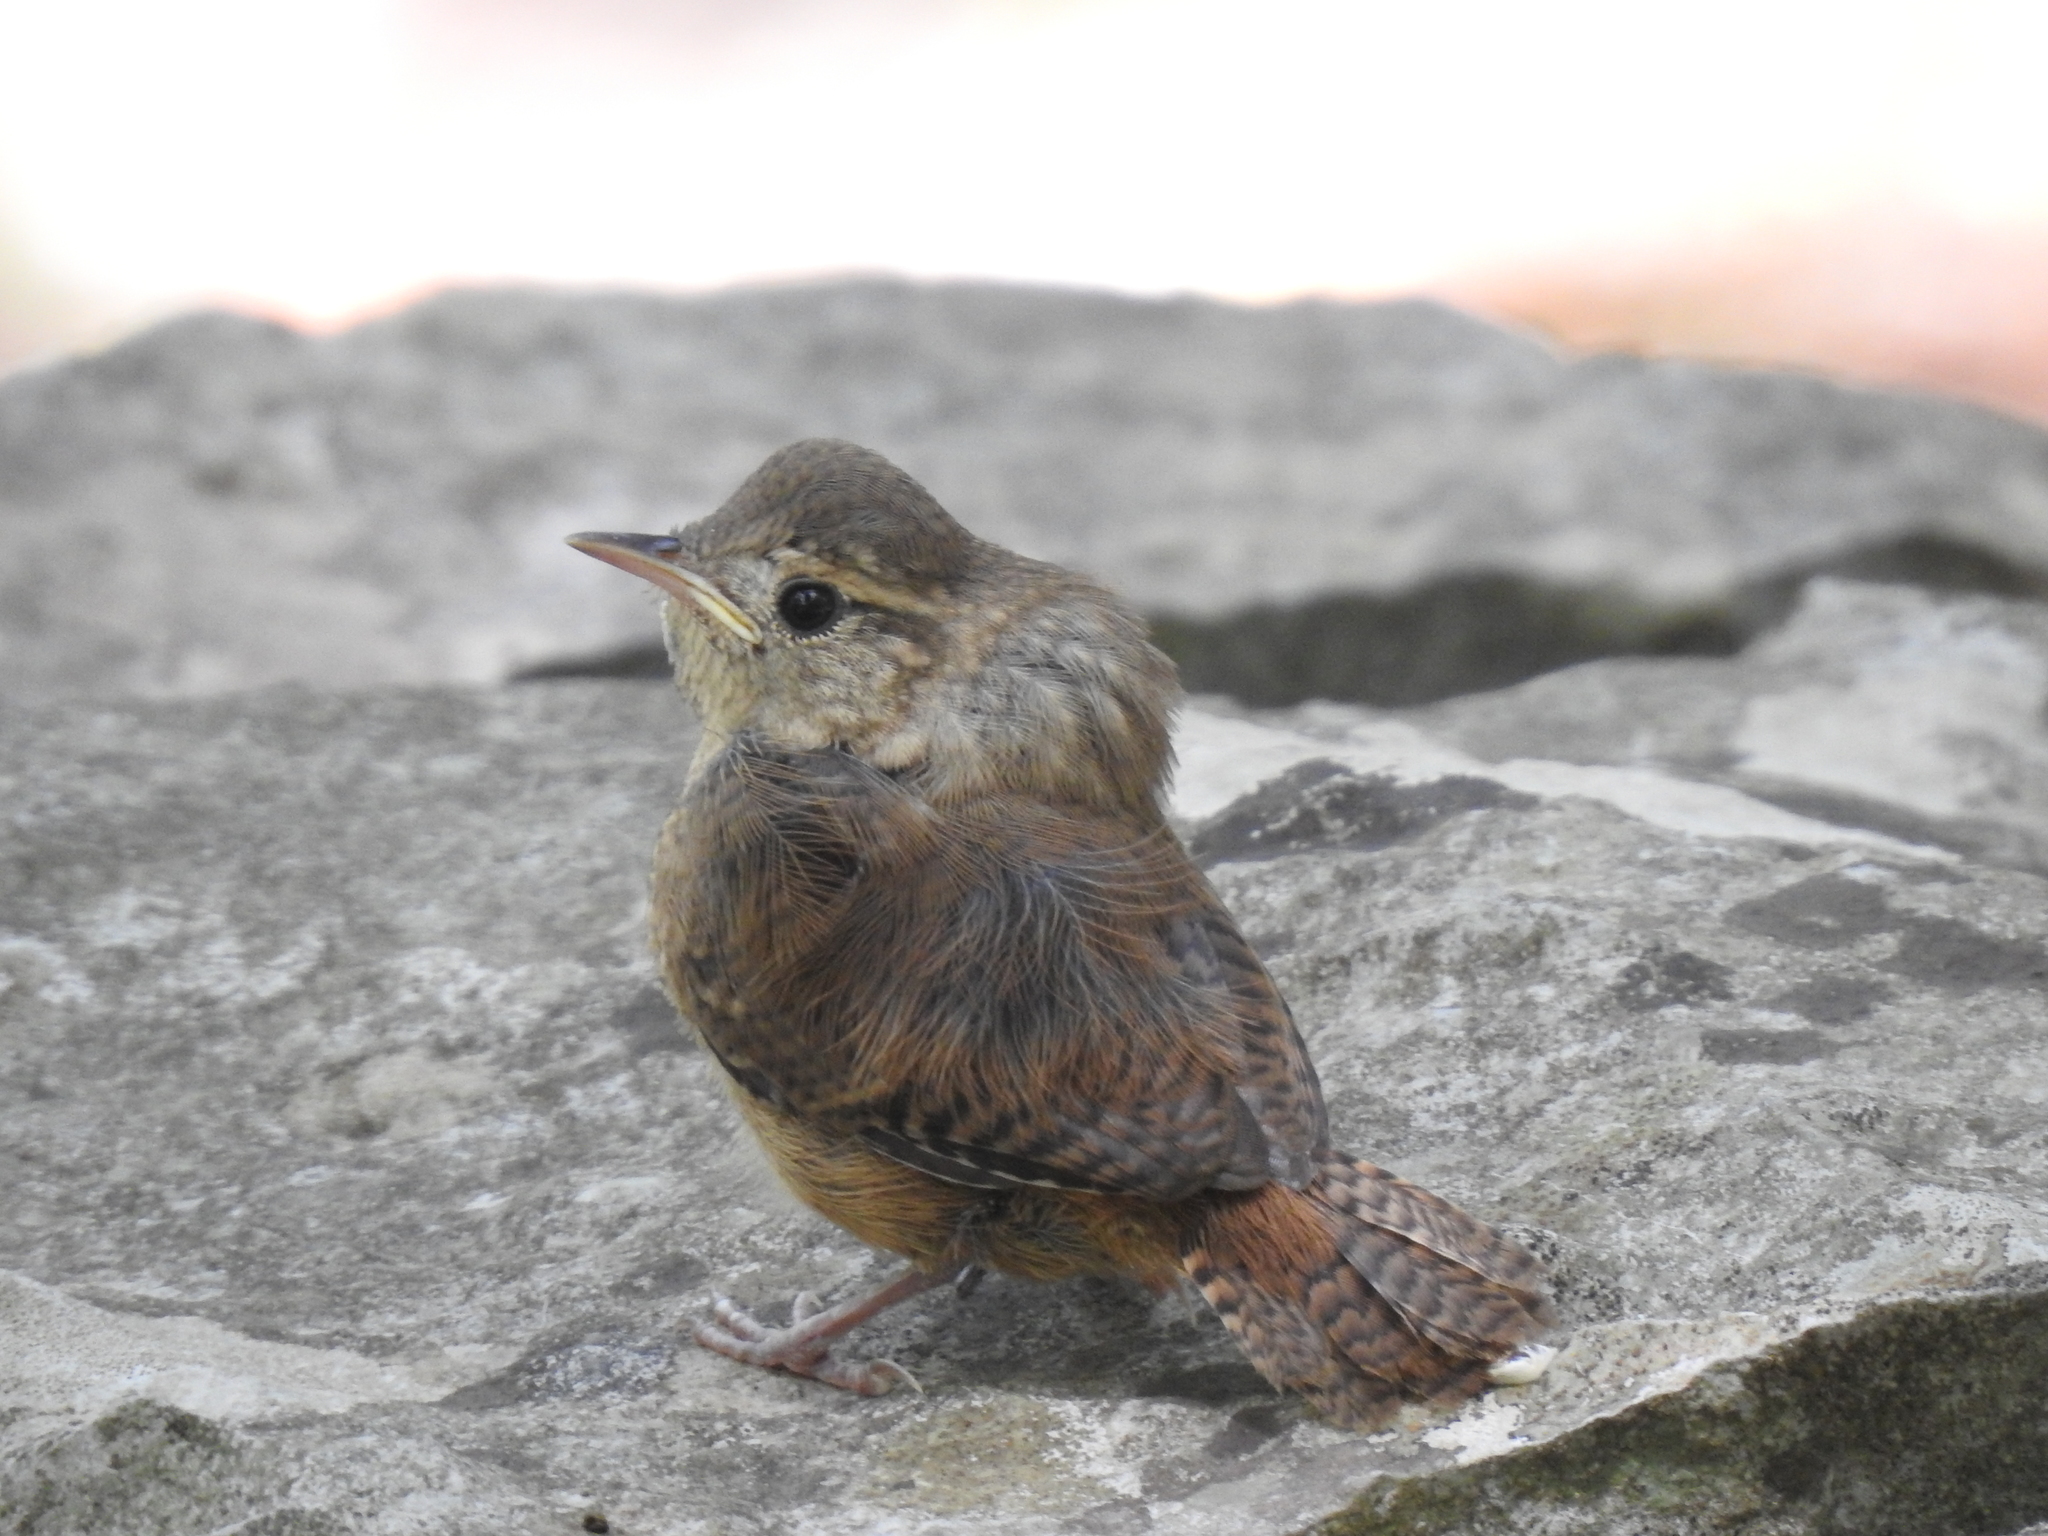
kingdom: Animalia
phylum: Chordata
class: Aves
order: Passeriformes
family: Troglodytidae
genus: Troglodytes
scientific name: Troglodytes aedon
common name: House wren
